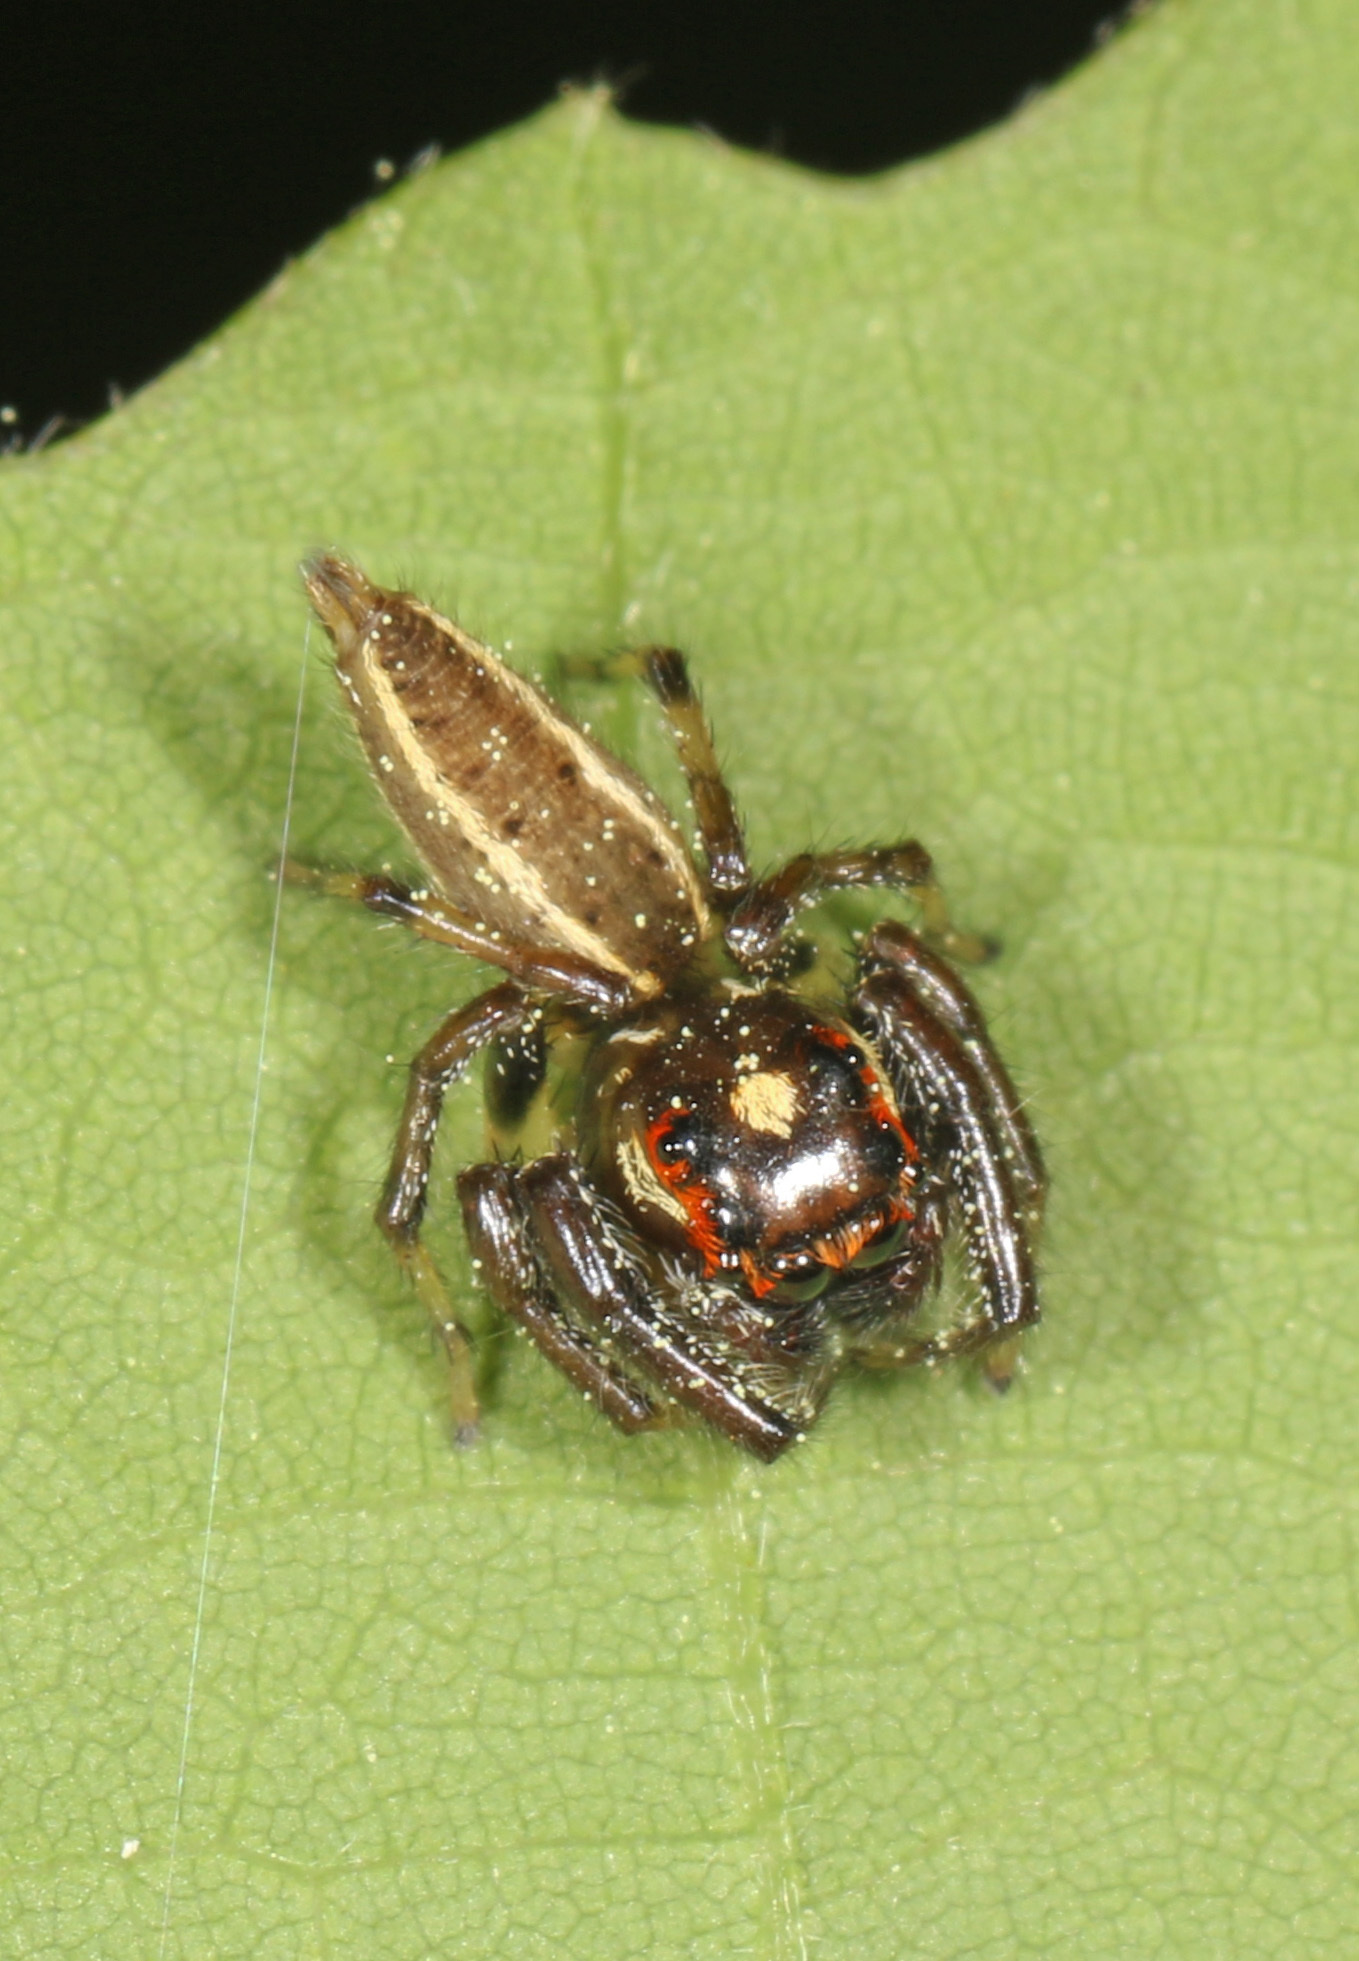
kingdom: Animalia
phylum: Arthropoda
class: Arachnida
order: Araneae
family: Salticidae
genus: Colonus
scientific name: Colonus sylvanus
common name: Jumping spiders
